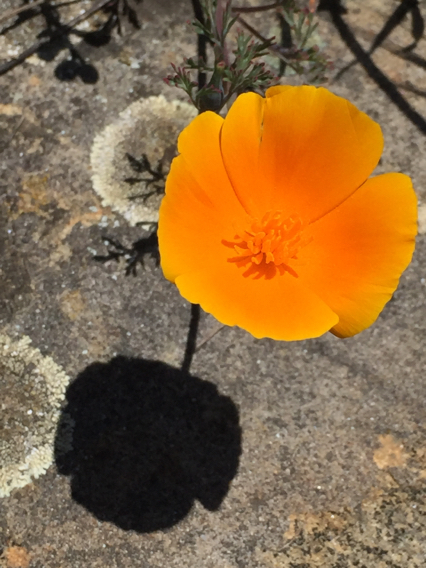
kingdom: Plantae
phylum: Tracheophyta
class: Magnoliopsida
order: Ranunculales
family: Papaveraceae
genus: Eschscholzia
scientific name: Eschscholzia californica
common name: California poppy
